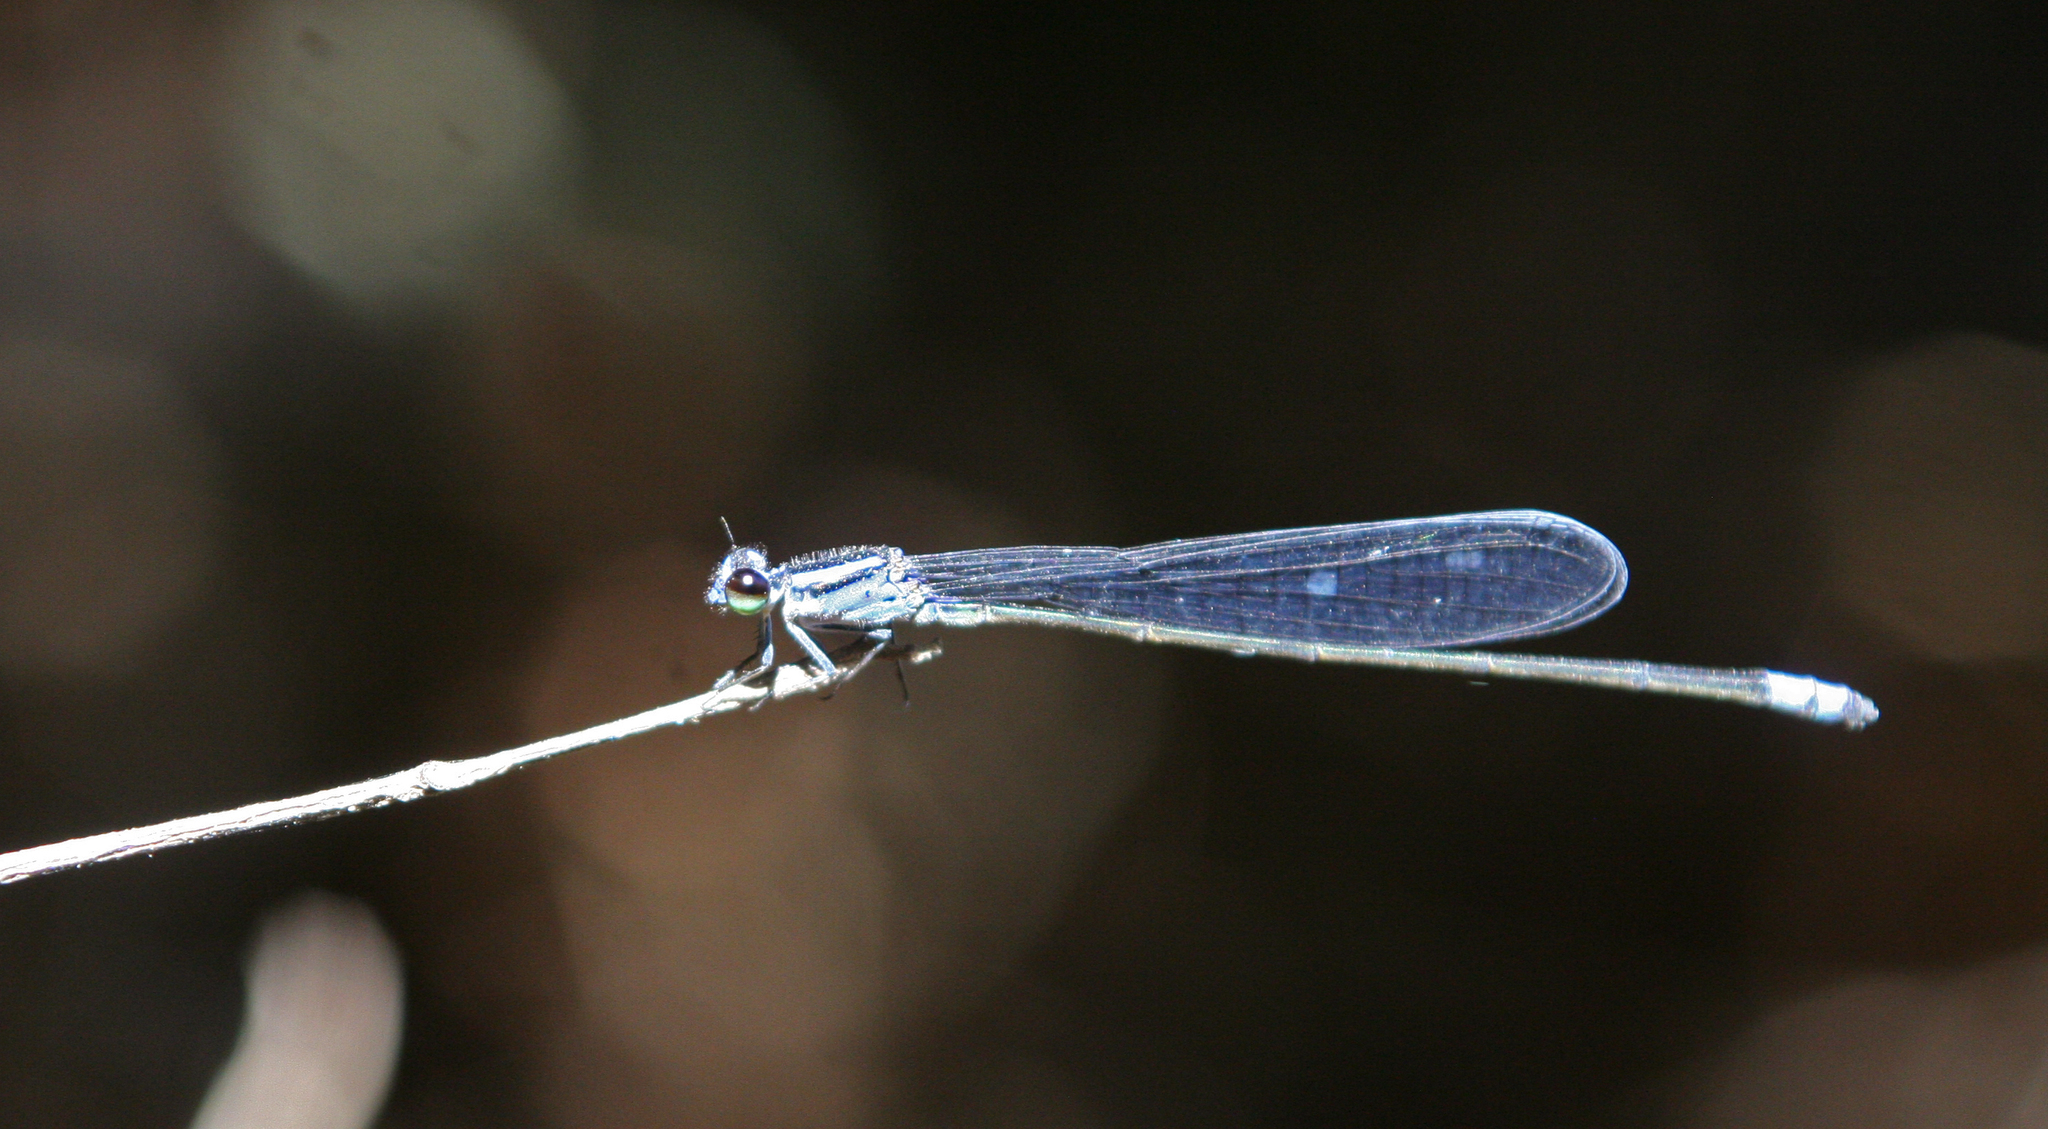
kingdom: Animalia
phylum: Arthropoda
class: Insecta
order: Odonata
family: Coenagrionidae
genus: Archibasis
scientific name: Archibasis viola
